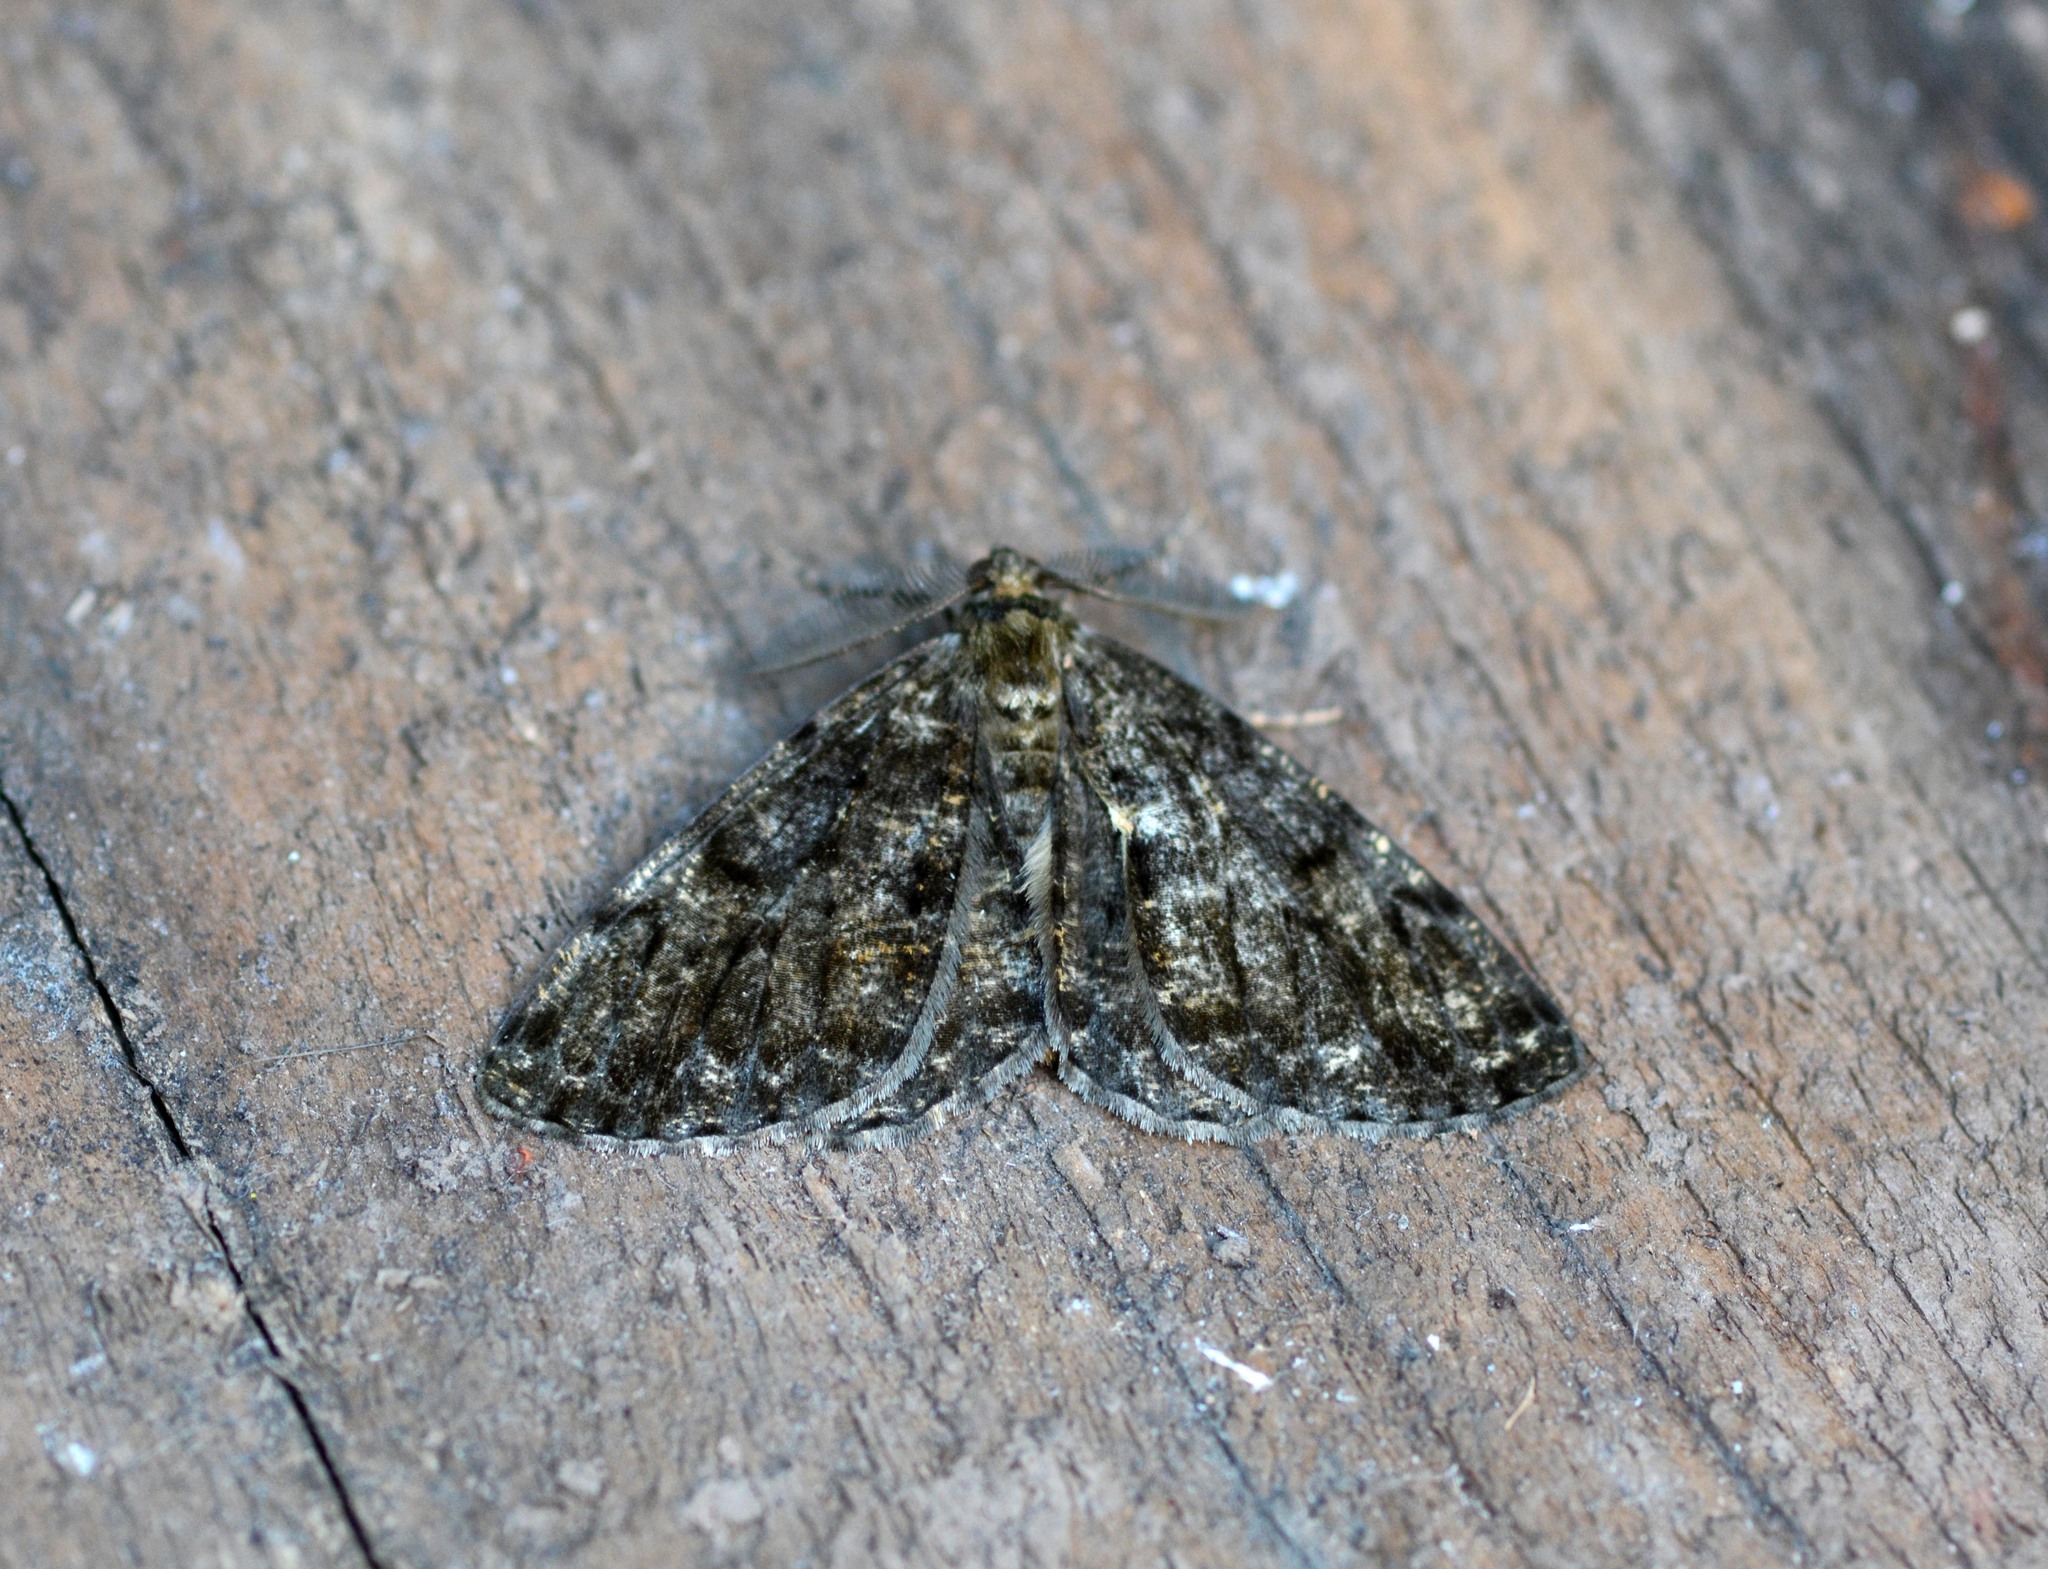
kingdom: Animalia
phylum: Arthropoda
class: Insecta
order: Lepidoptera
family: Geometridae
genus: Deileptenia
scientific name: Deileptenia ribeata
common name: Satin beauty
